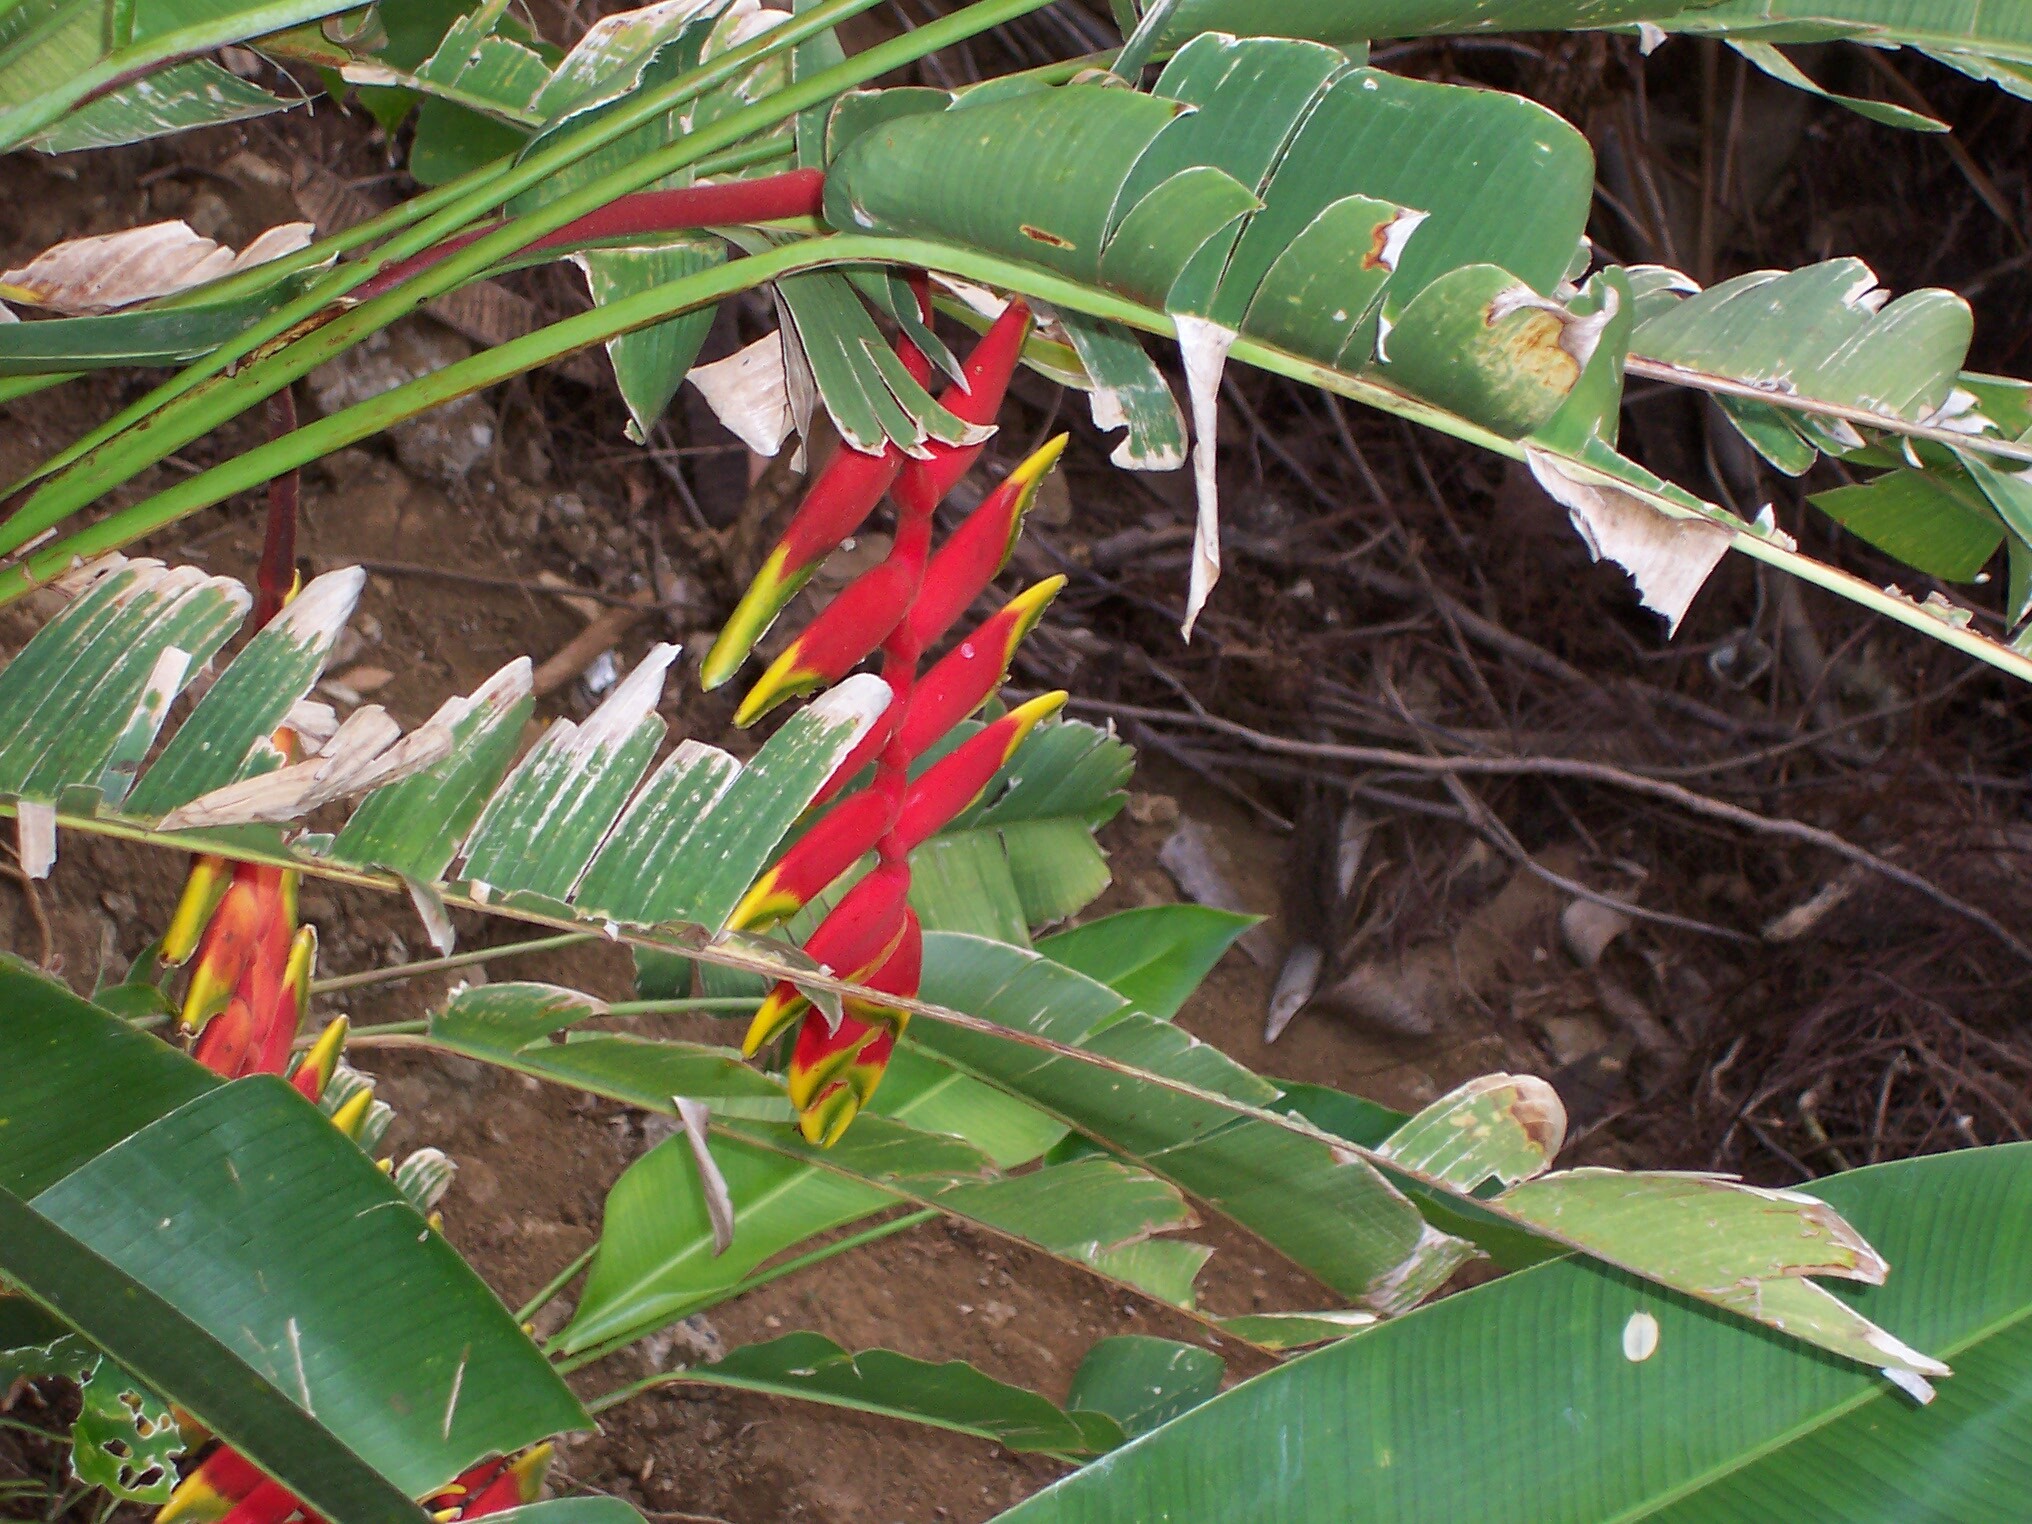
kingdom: Plantae
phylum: Tracheophyta
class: Liliopsida
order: Zingiberales
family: Heliconiaceae
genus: Heliconia
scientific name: Heliconia rostrata
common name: False bird of paradise
